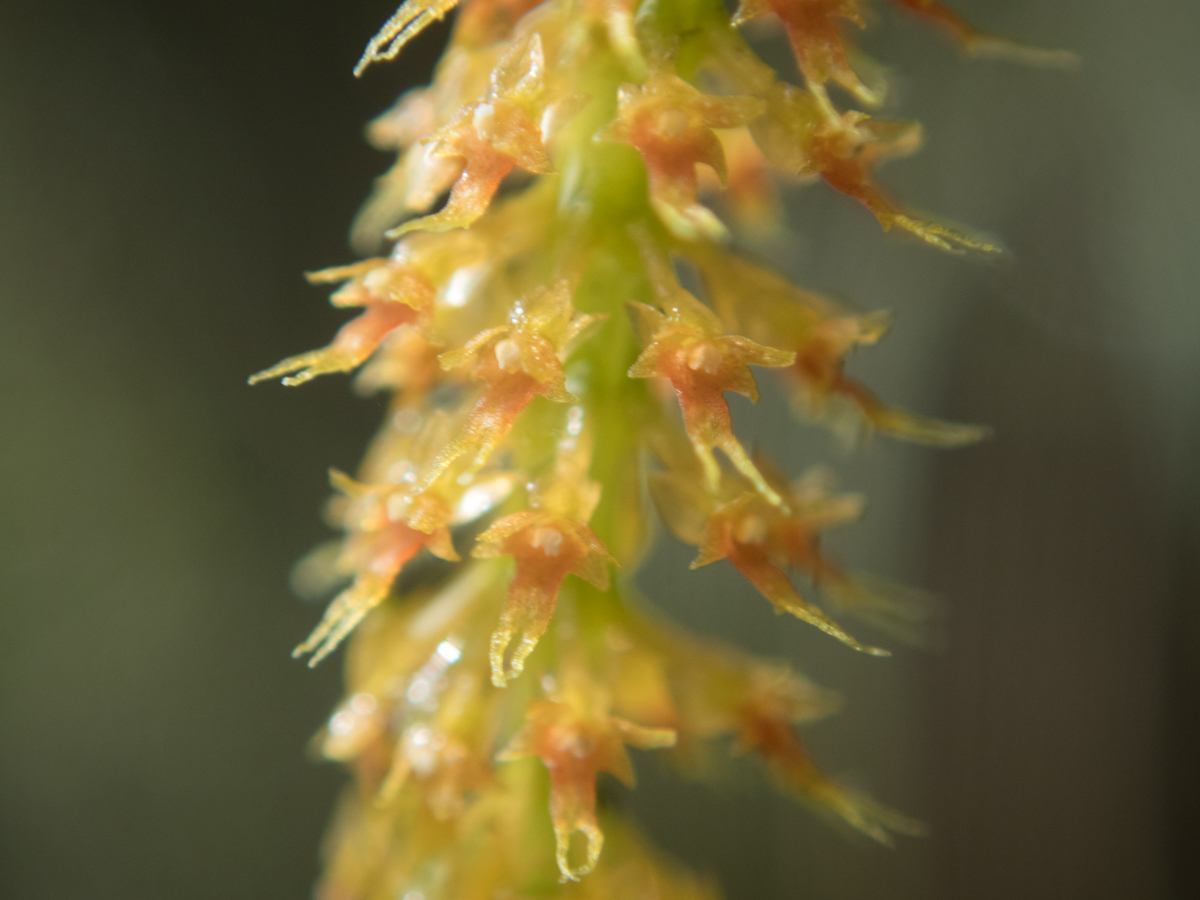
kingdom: Plantae
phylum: Tracheophyta
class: Liliopsida
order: Asparagales
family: Orchidaceae
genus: Oberonia
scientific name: Oberonia falcata
